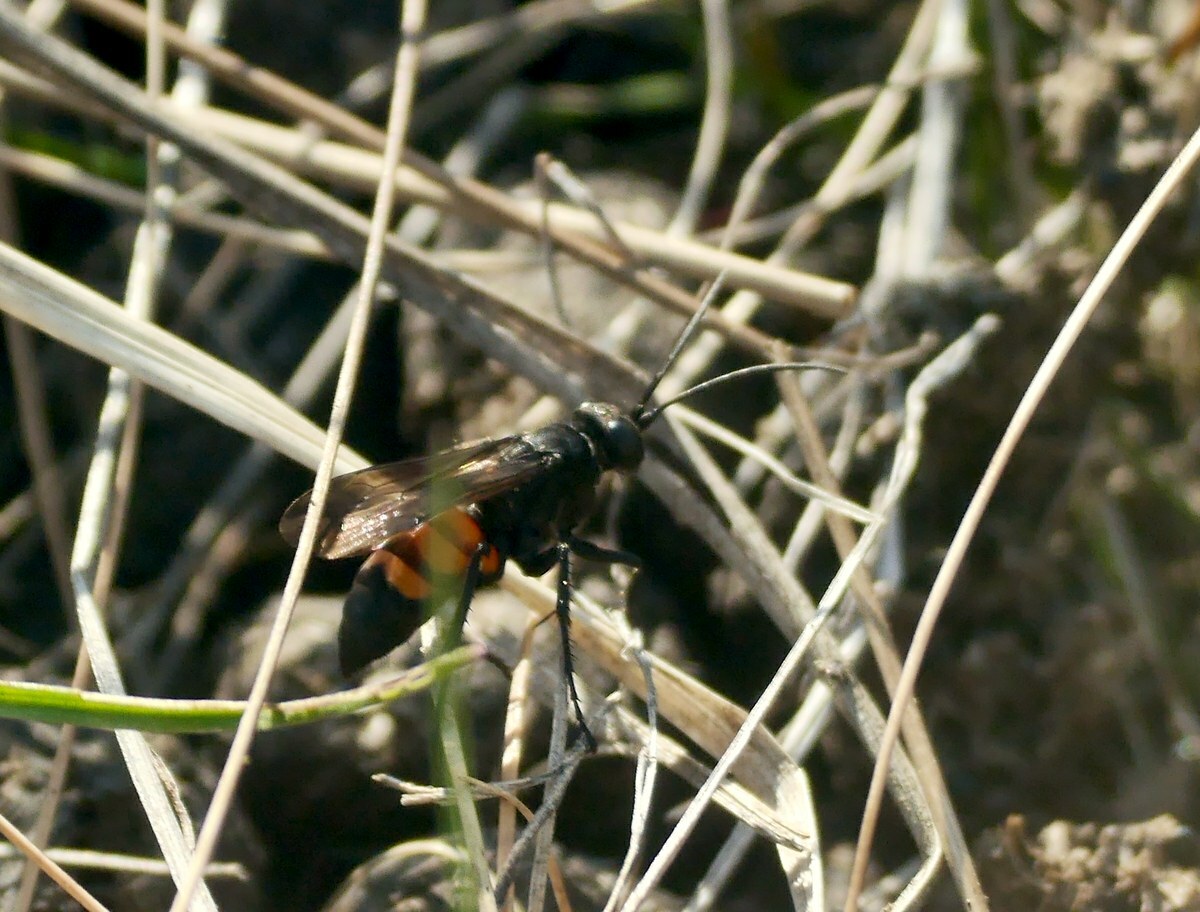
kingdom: Animalia
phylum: Arthropoda
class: Insecta
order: Hymenoptera
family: Pompilidae
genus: Anoplius
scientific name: Anoplius viaticus
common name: Black banded spider wasp
